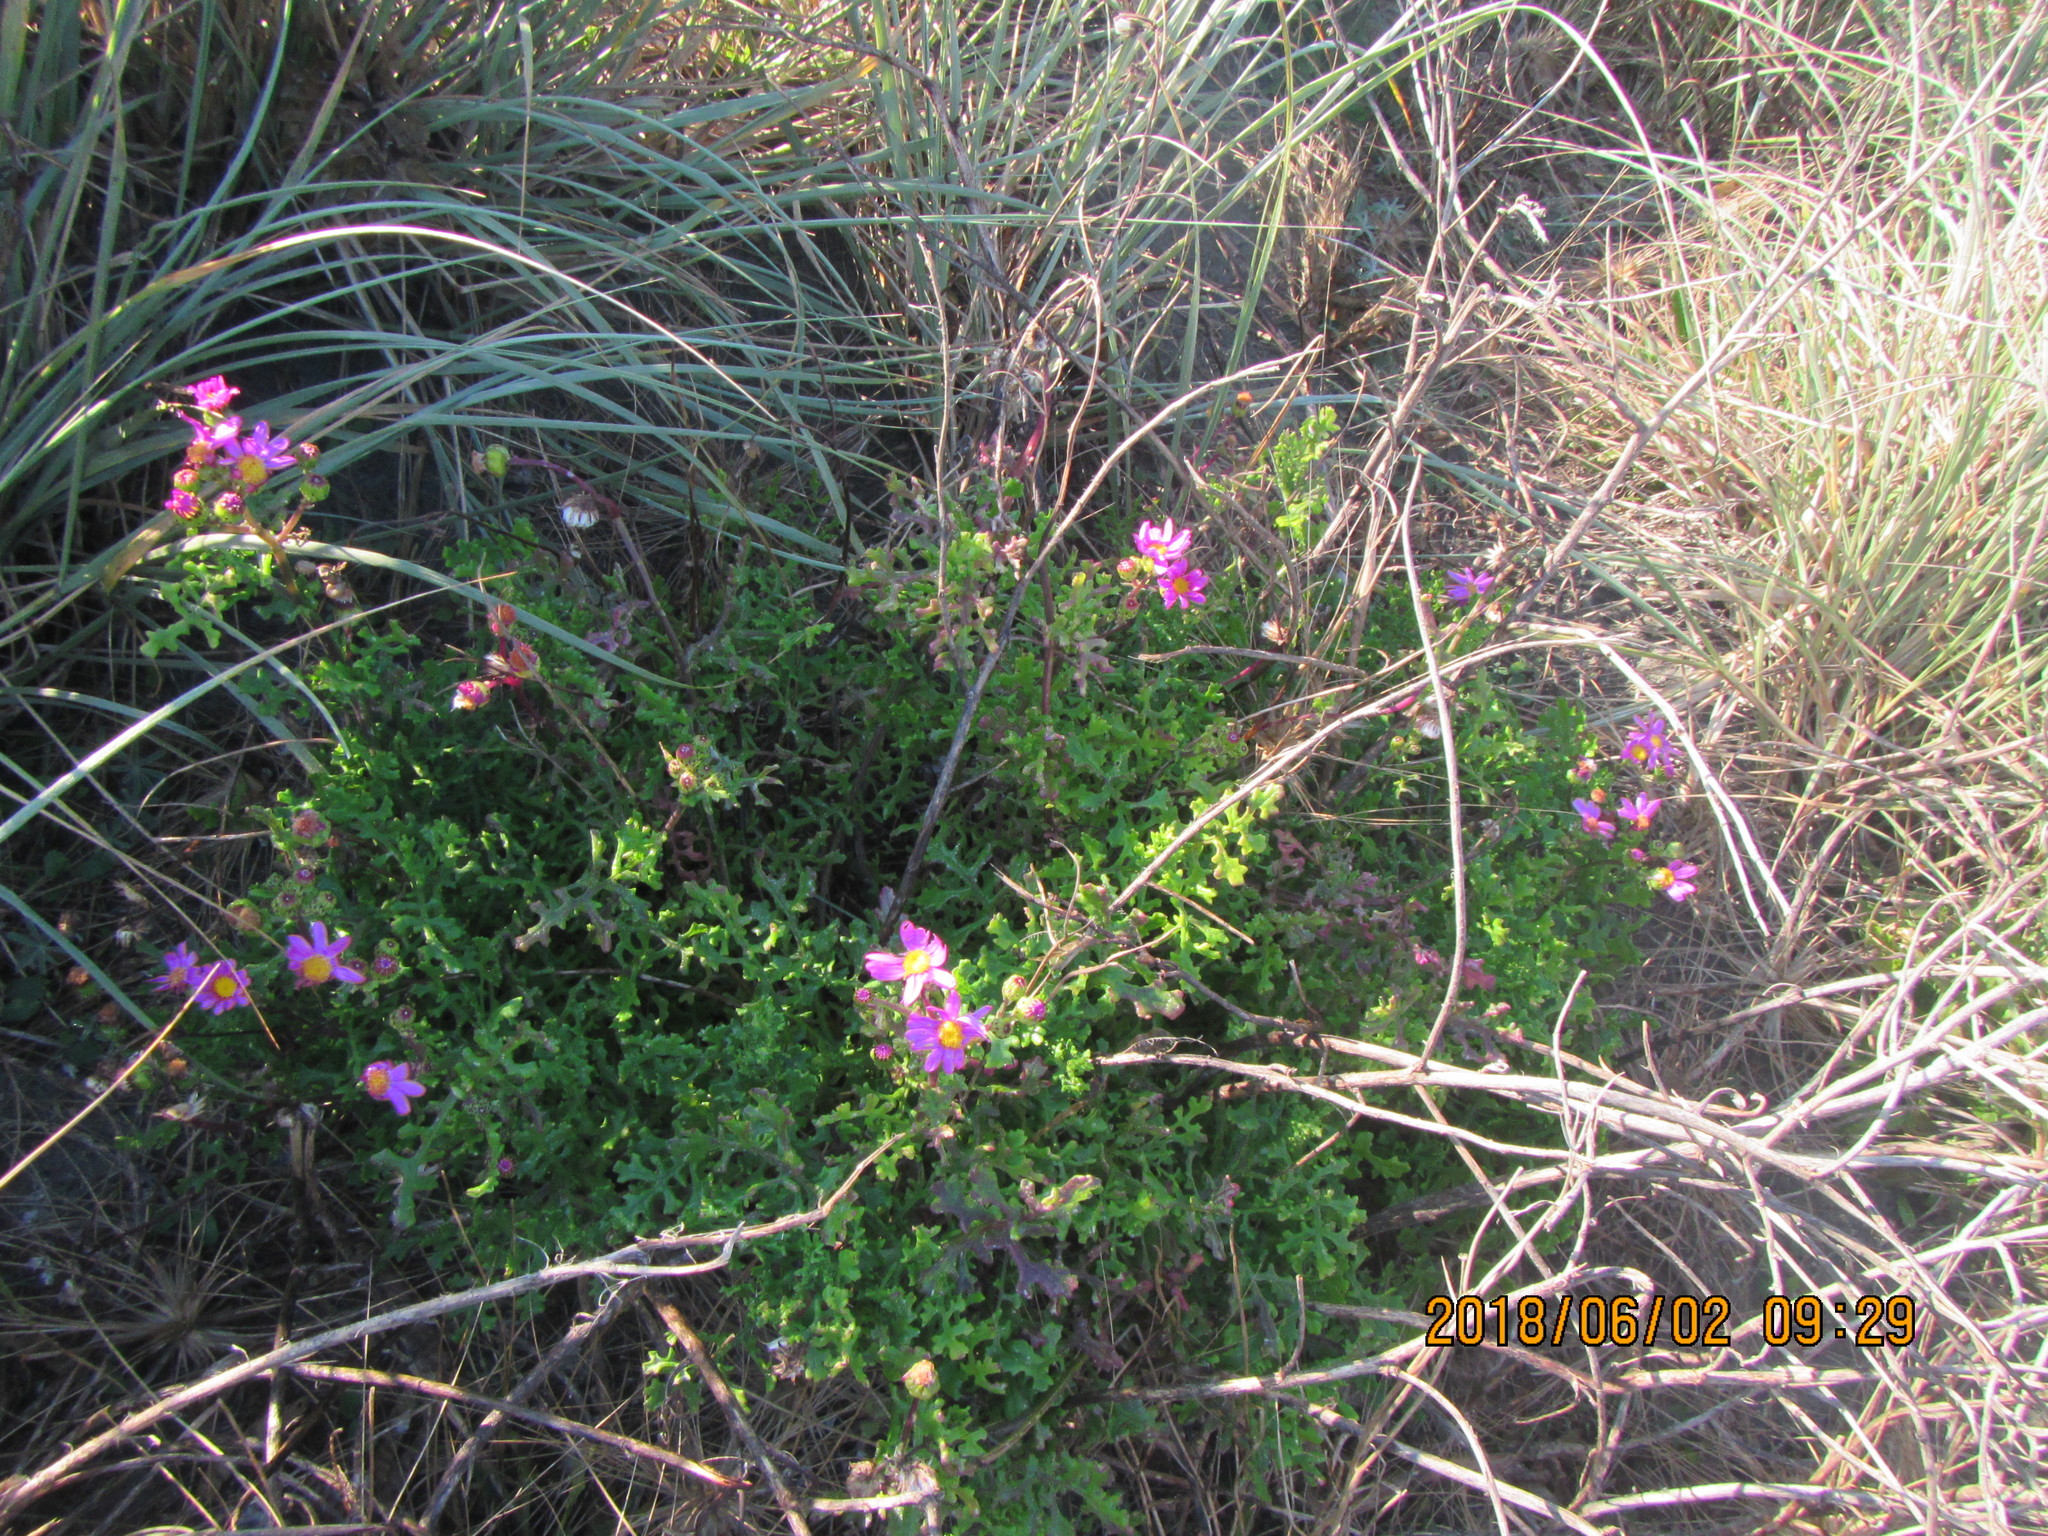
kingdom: Plantae
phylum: Tracheophyta
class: Magnoliopsida
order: Asterales
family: Asteraceae
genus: Senecio
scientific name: Senecio elegans
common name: Purple groundsel
